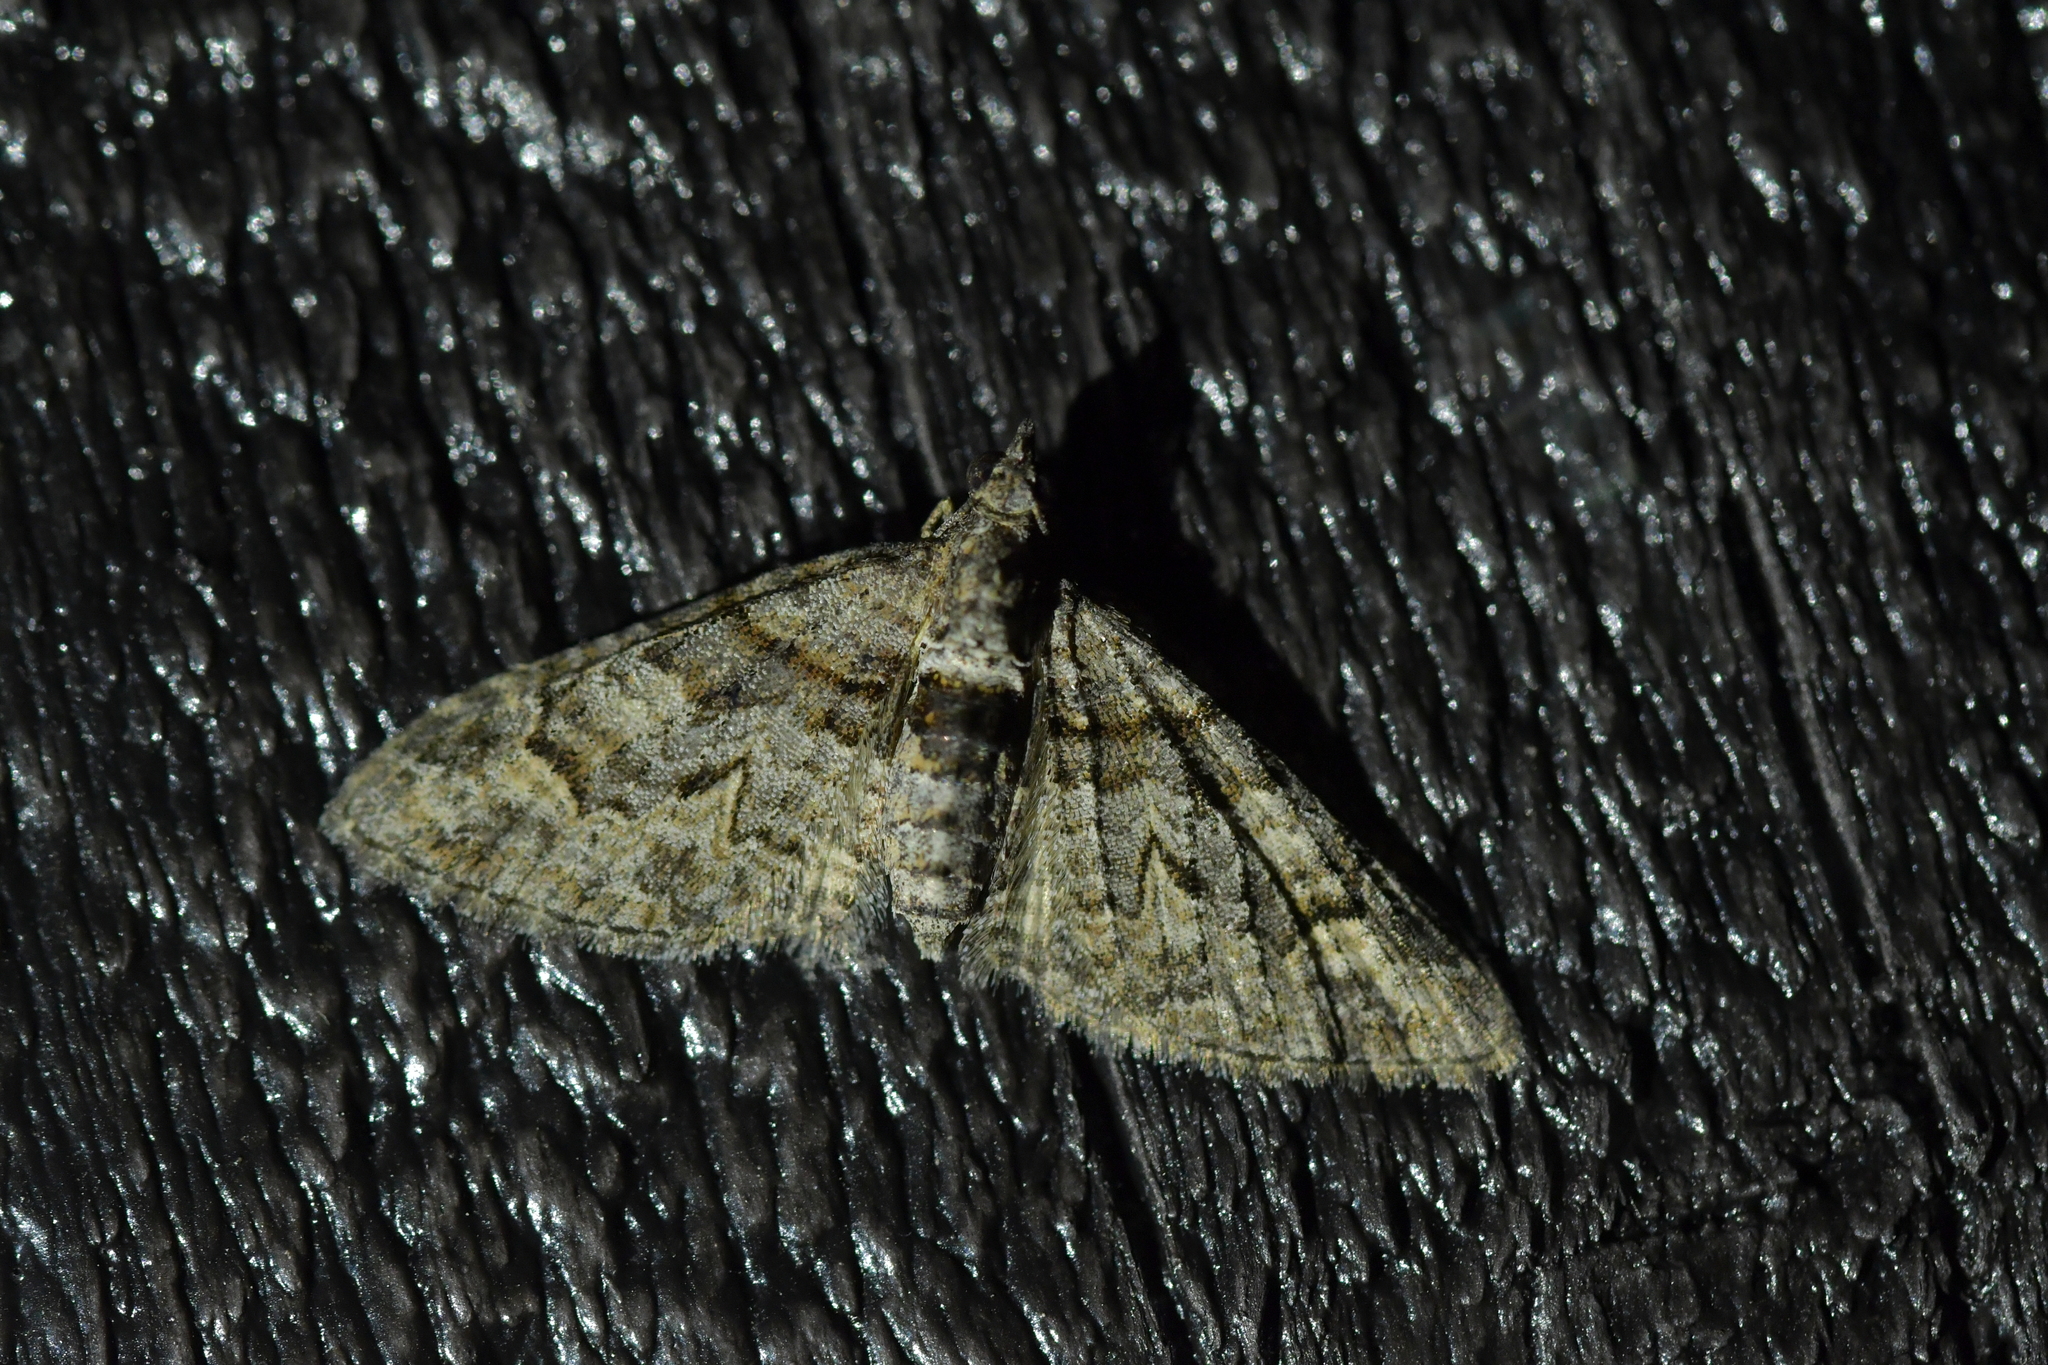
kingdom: Animalia
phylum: Arthropoda
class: Insecta
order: Lepidoptera
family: Geometridae
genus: Phrissogonus
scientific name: Phrissogonus laticostata
